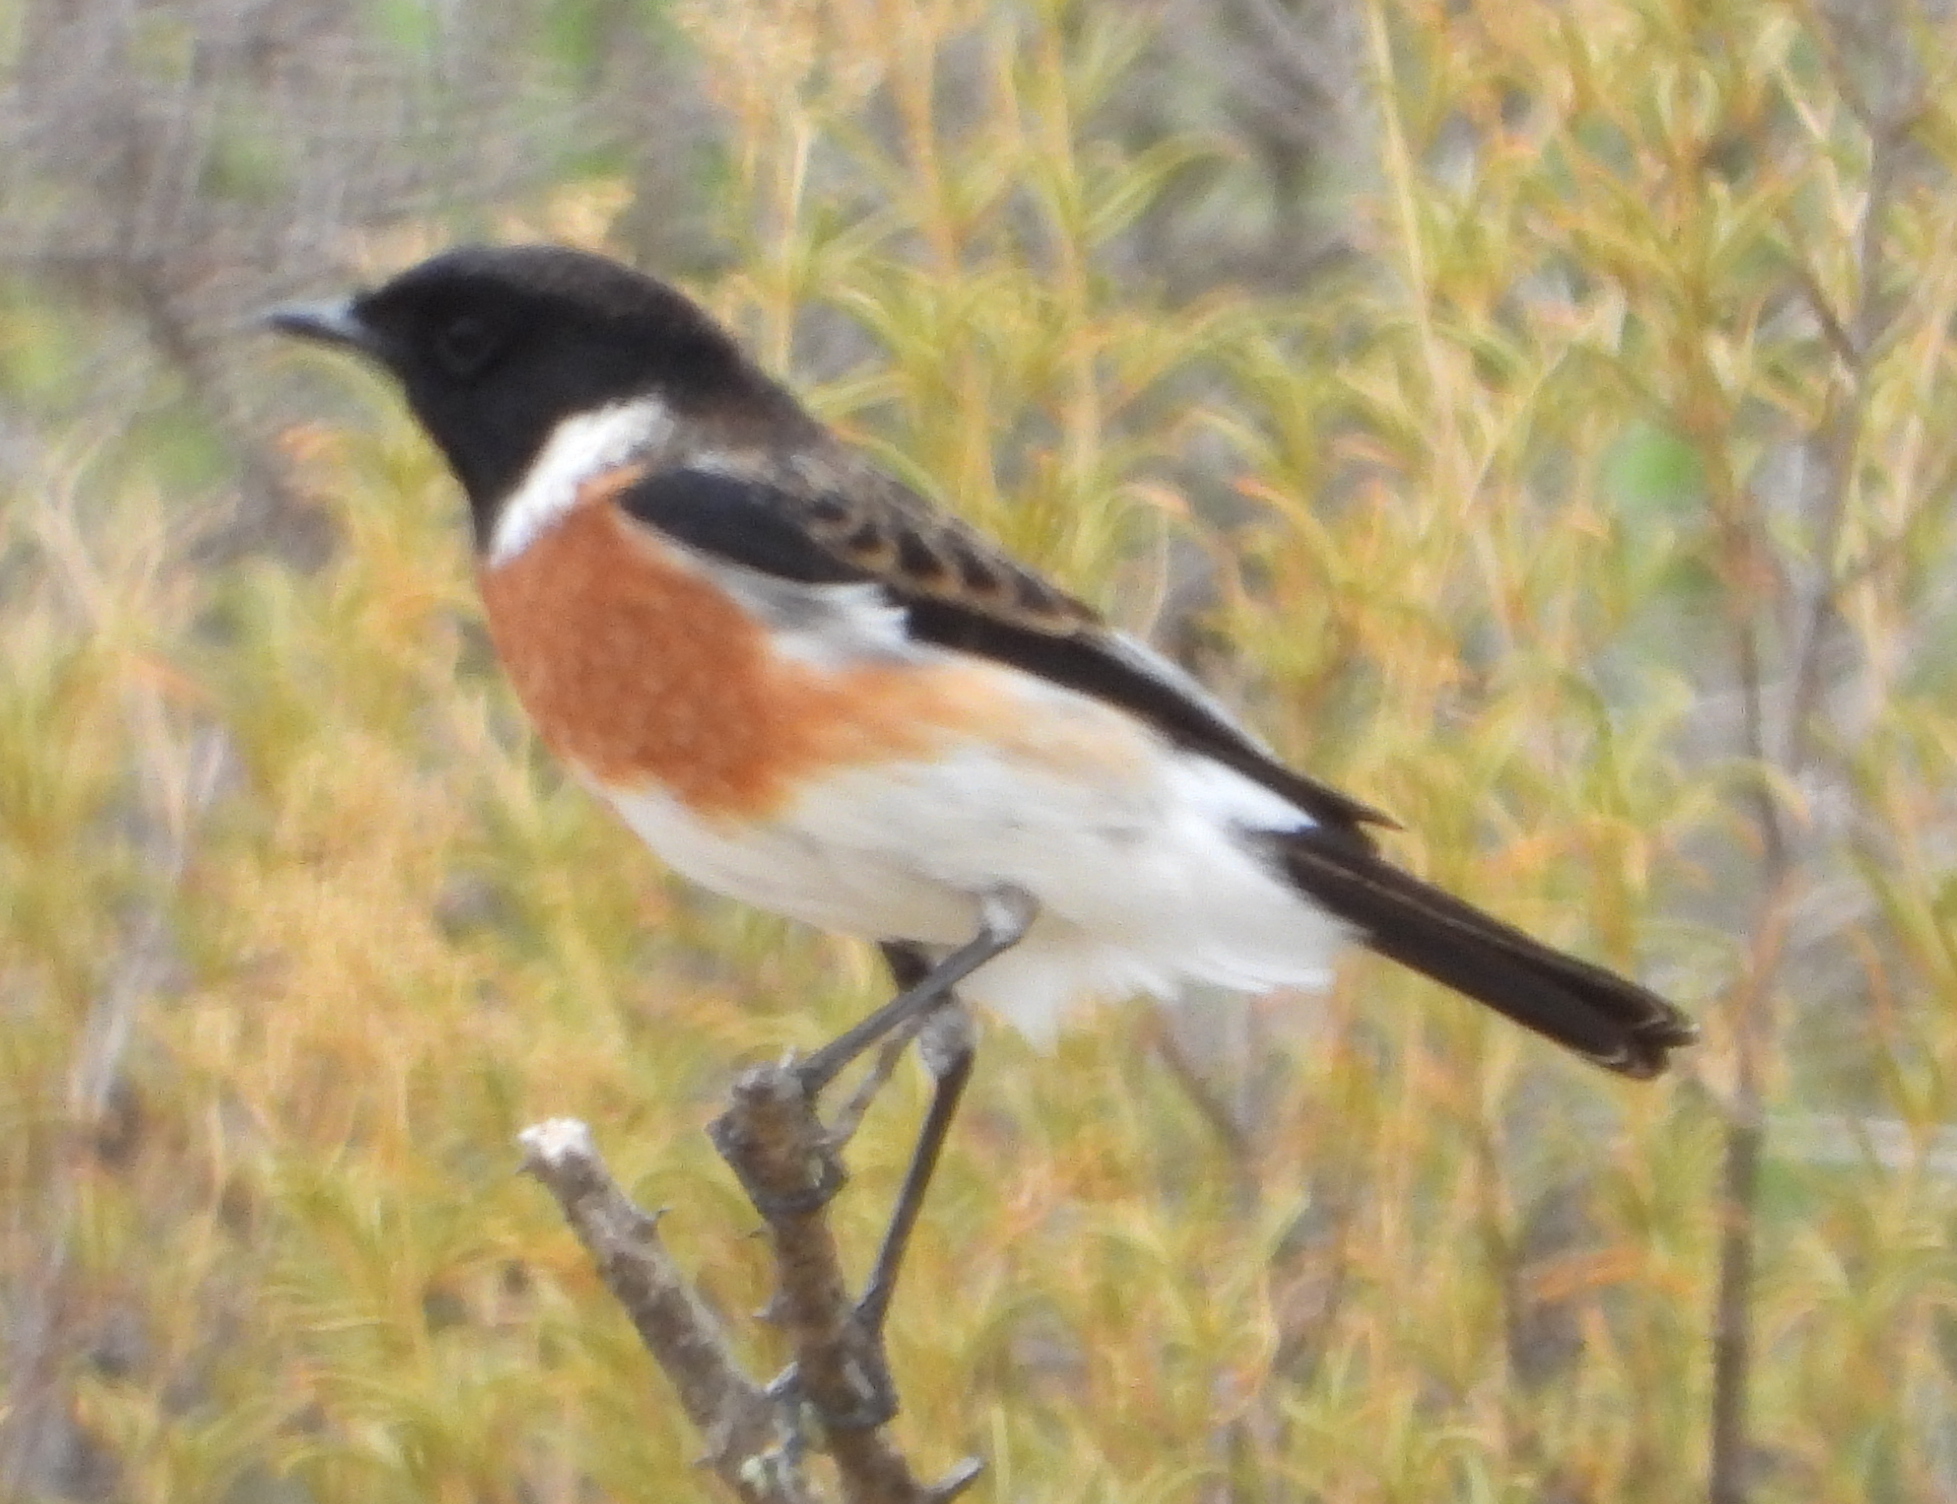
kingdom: Animalia
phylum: Chordata
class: Aves
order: Passeriformes
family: Muscicapidae
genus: Saxicola
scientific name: Saxicola torquatus
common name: African stonechat
